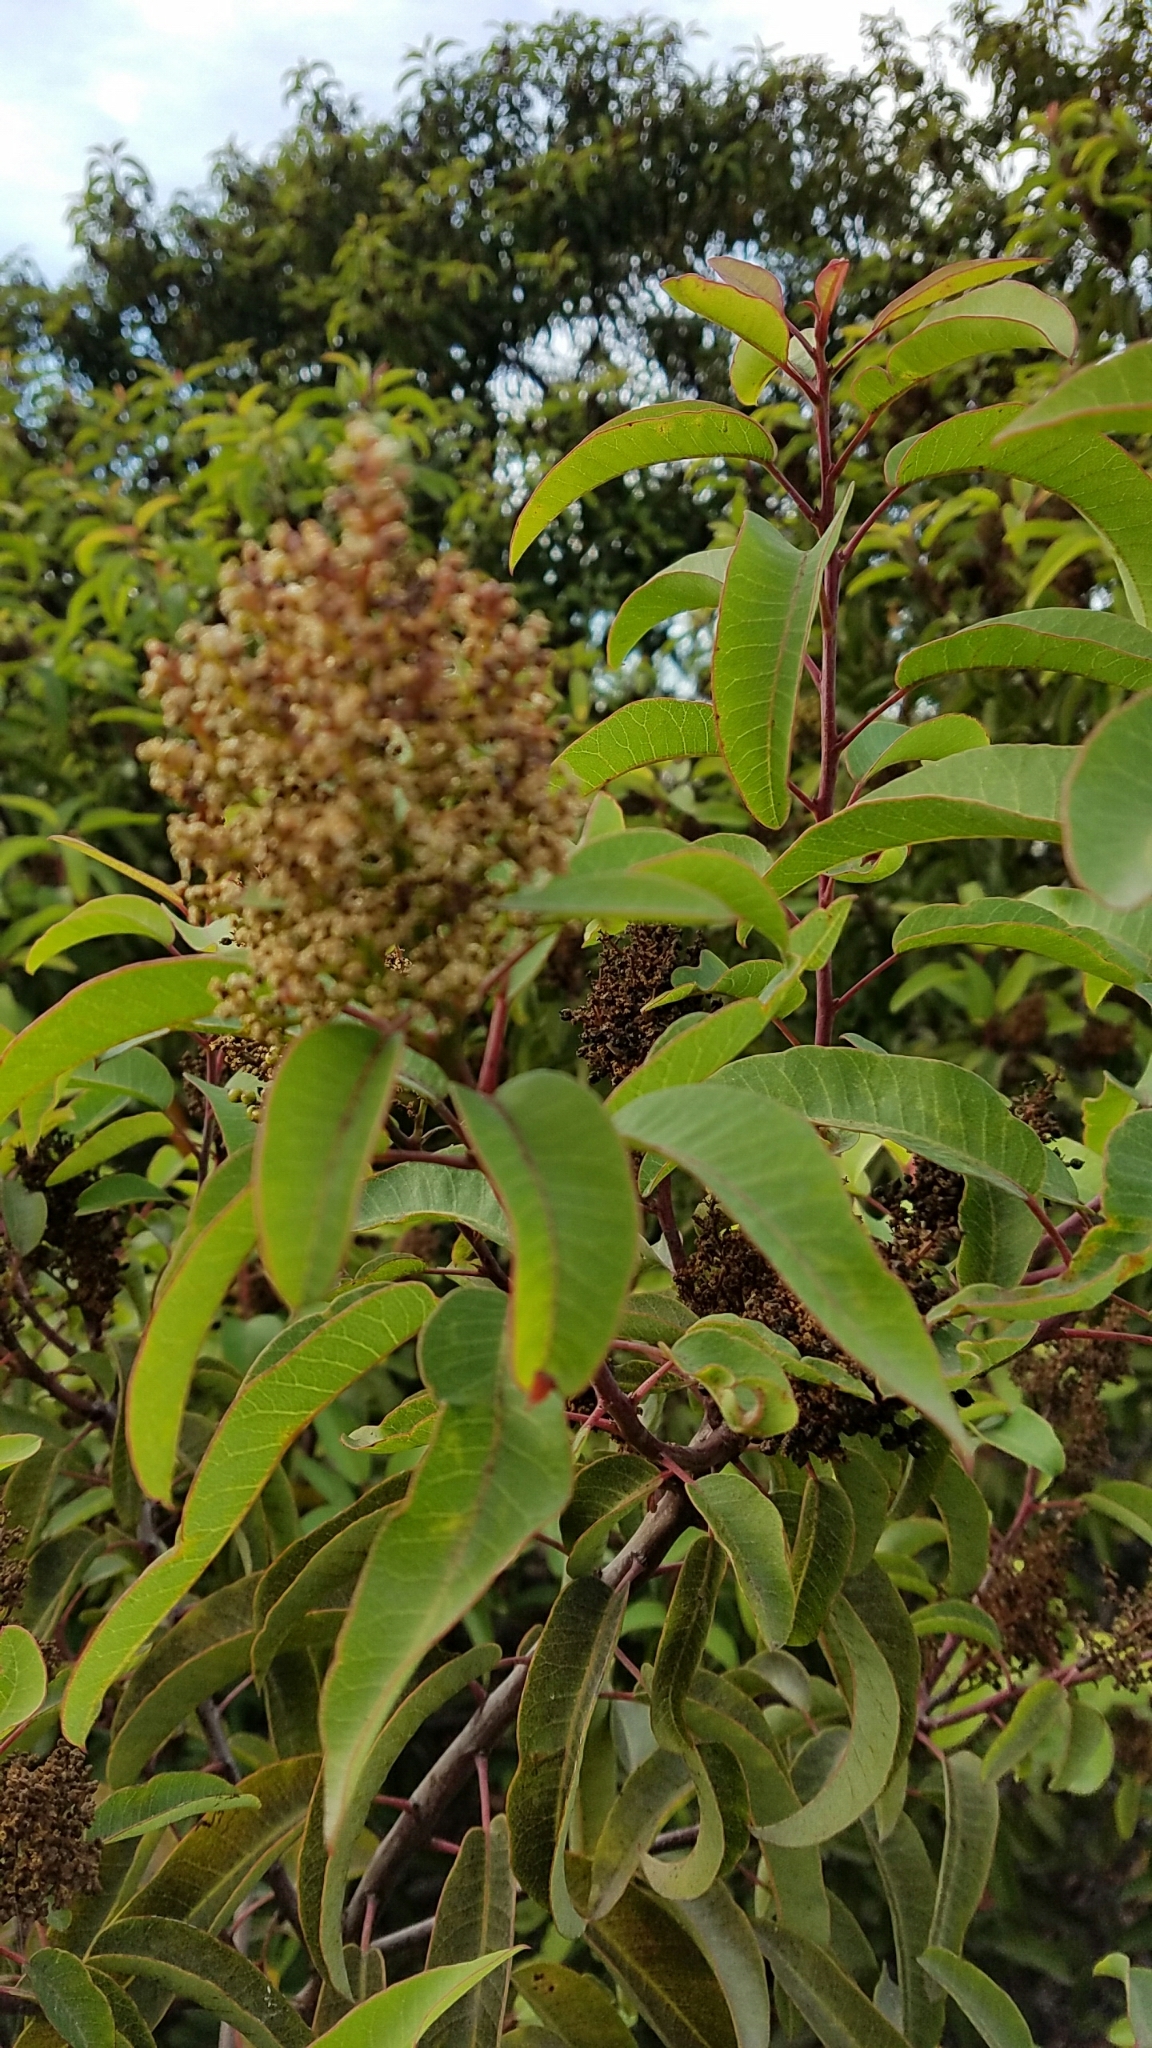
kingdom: Plantae
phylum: Tracheophyta
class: Magnoliopsida
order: Sapindales
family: Anacardiaceae
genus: Malosma
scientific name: Malosma laurina
